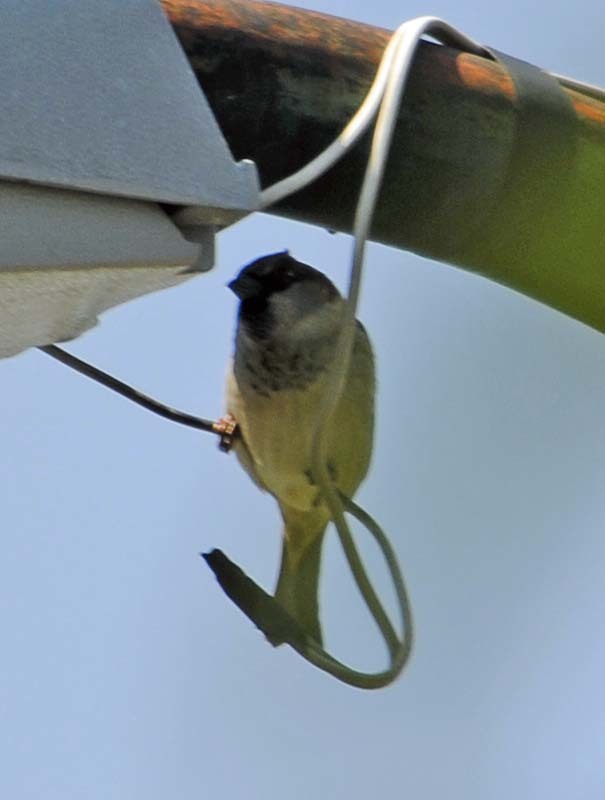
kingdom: Animalia
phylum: Chordata
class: Aves
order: Passeriformes
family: Passeridae
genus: Passer
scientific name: Passer domesticus
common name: House sparrow
